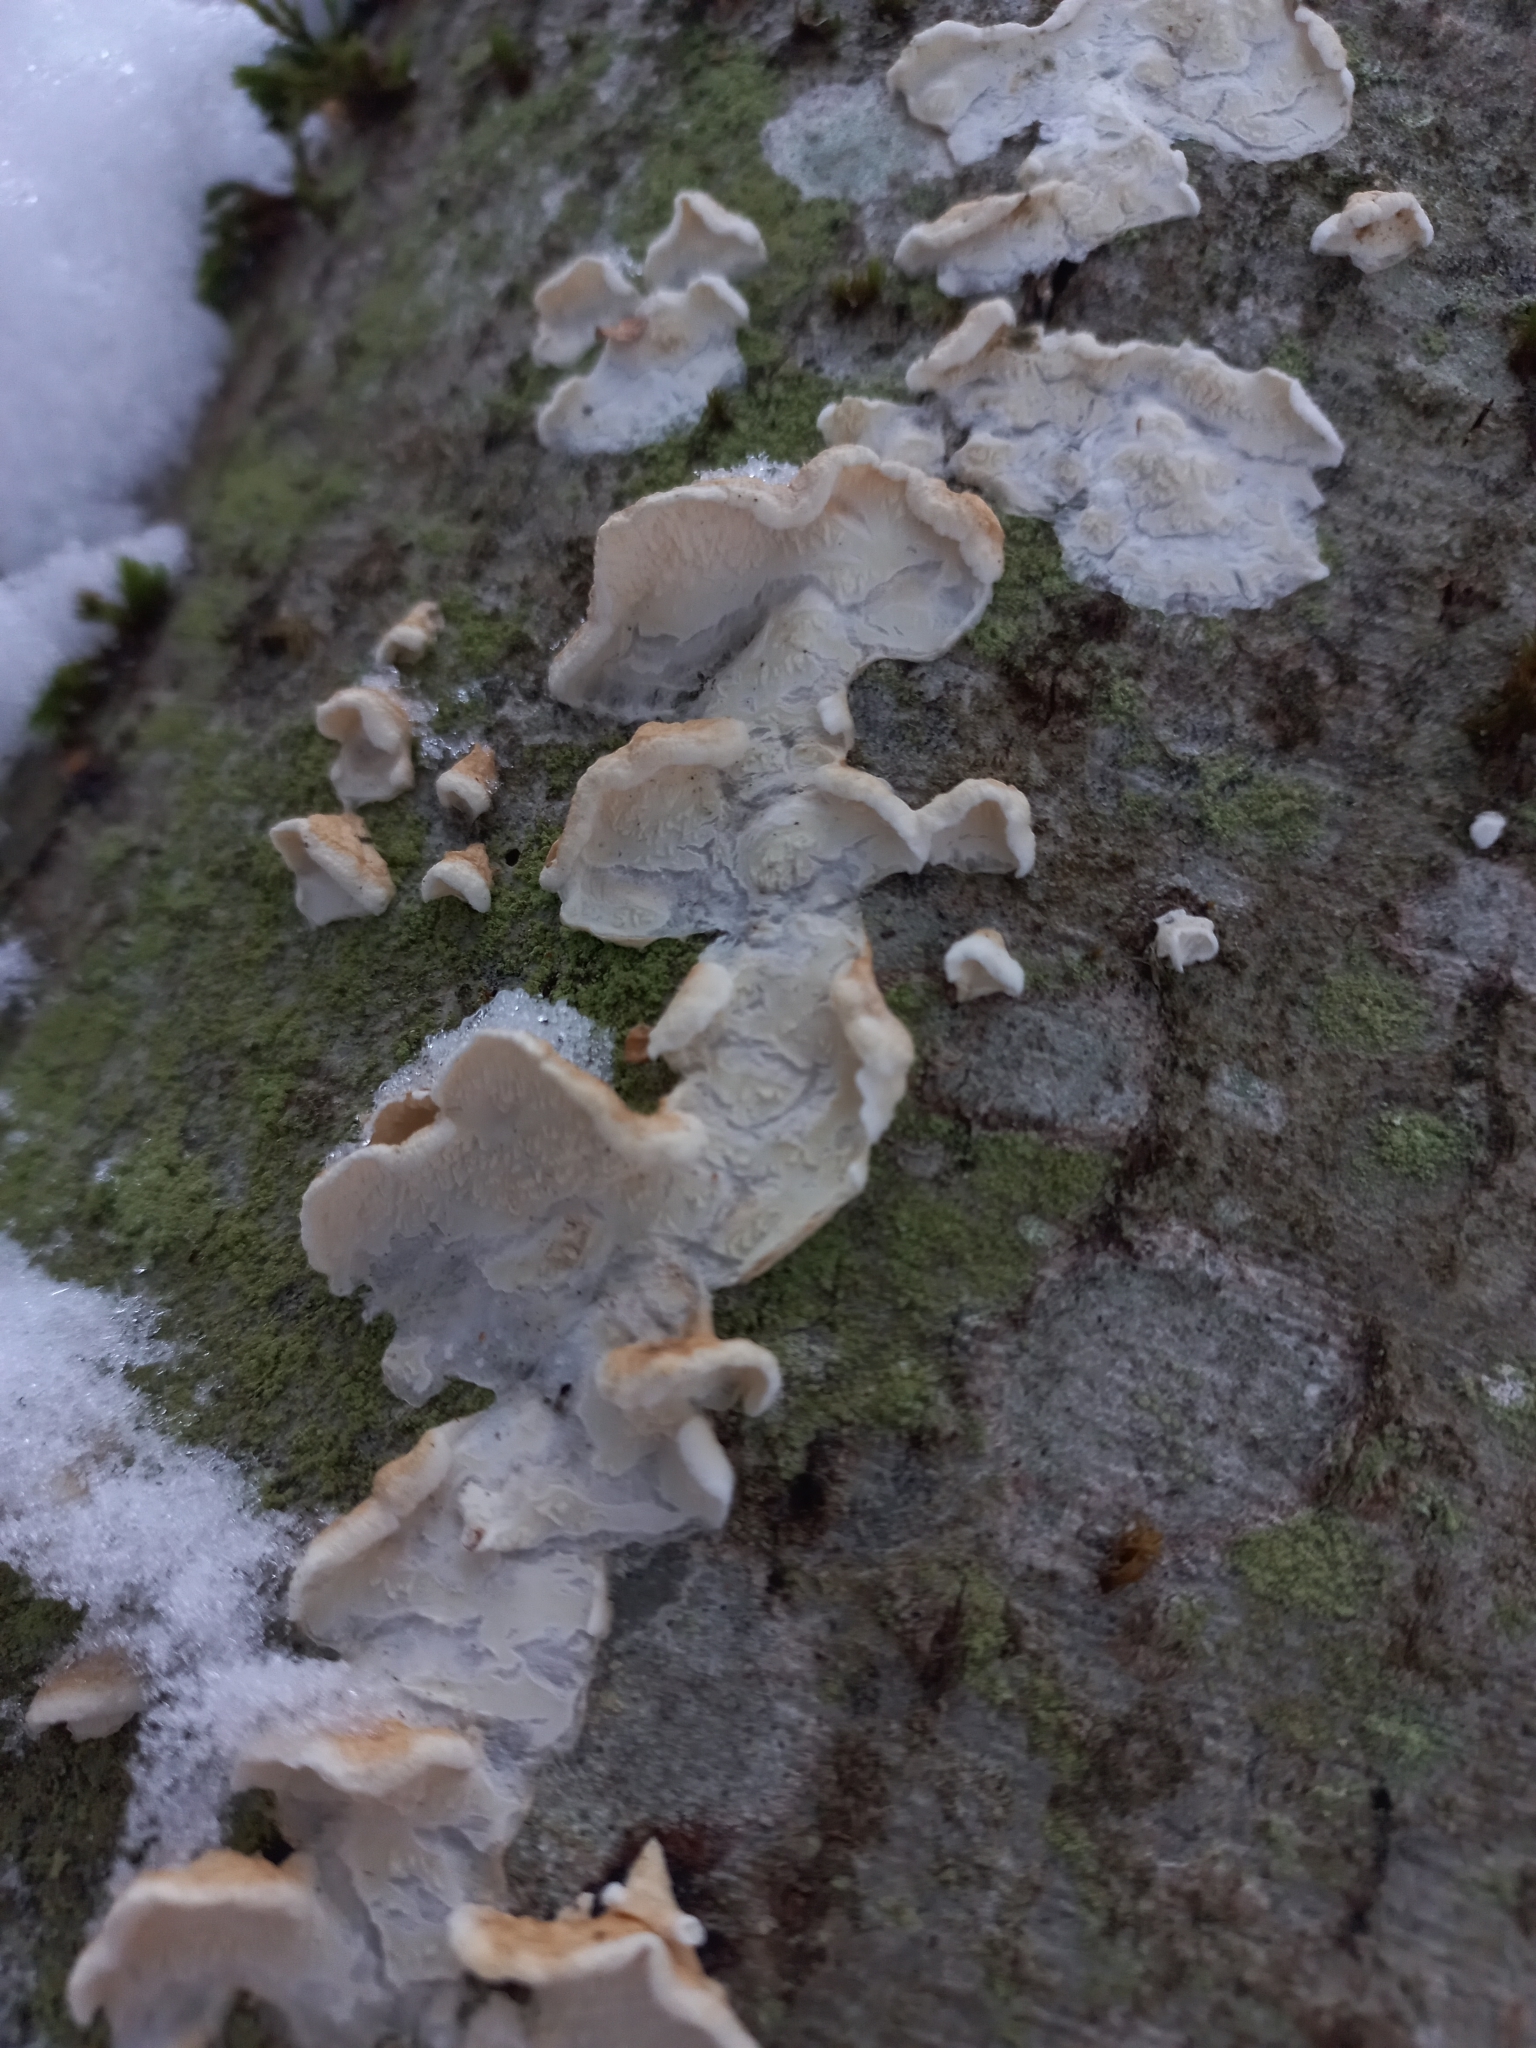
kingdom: Fungi
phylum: Basidiomycota
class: Agaricomycetes
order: Agaricales
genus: Plicatura
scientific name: Plicatura nivea
